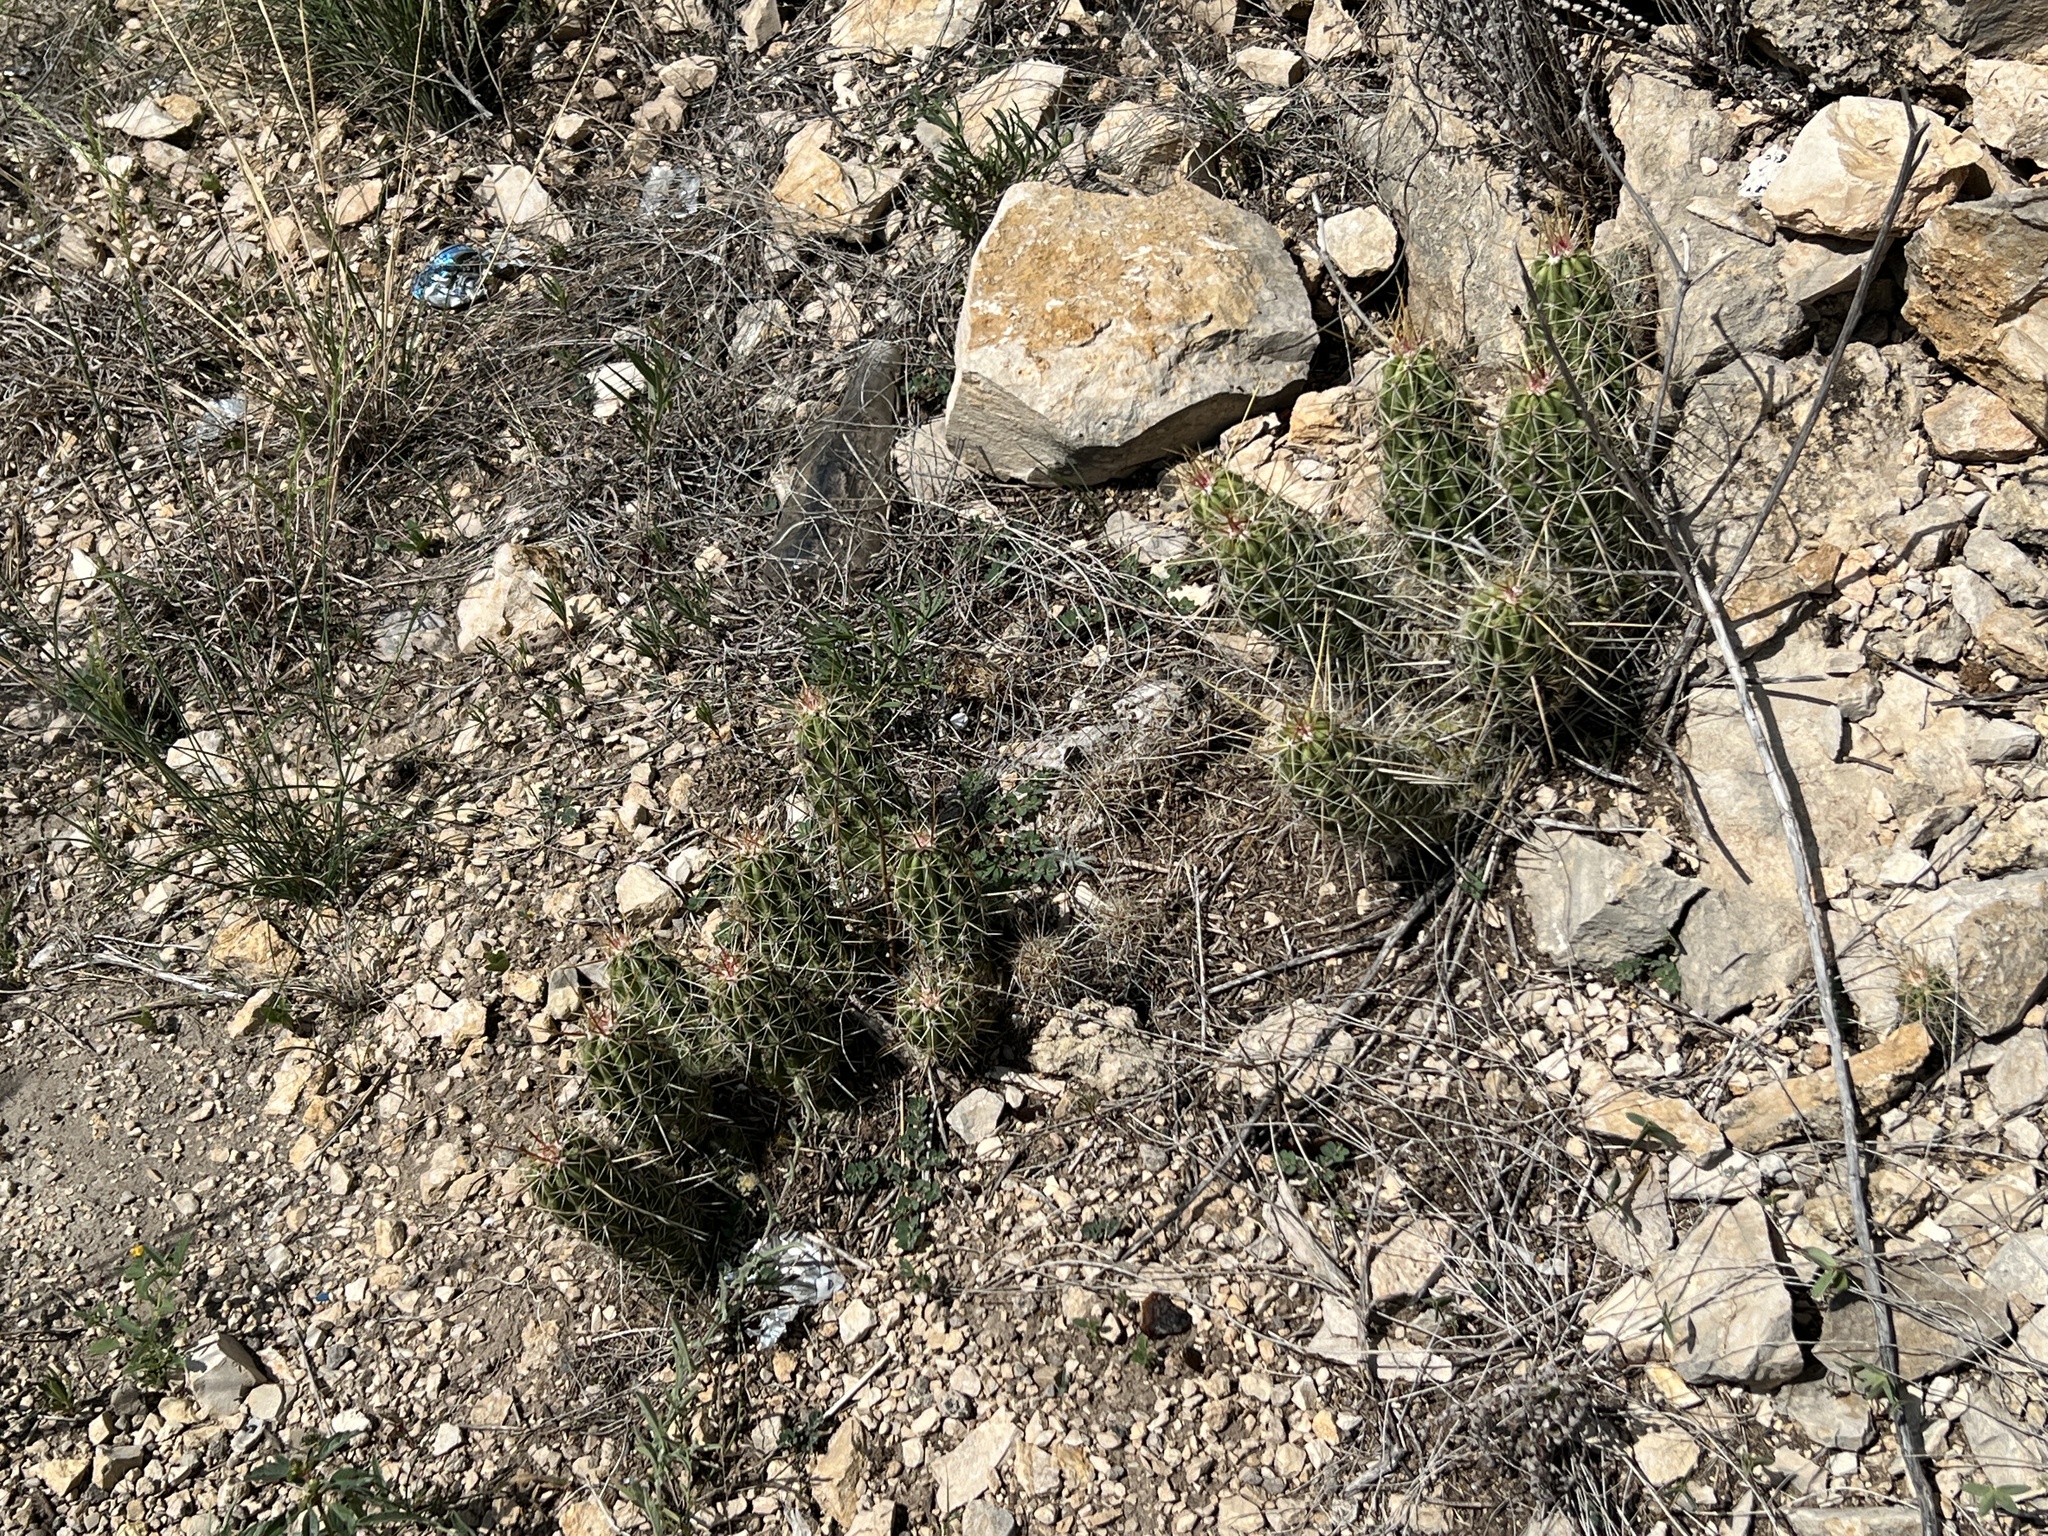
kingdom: Plantae
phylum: Tracheophyta
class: Magnoliopsida
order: Caryophyllales
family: Cactaceae
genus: Echinocereus
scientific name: Echinocereus enneacanthus
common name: Pitaya
